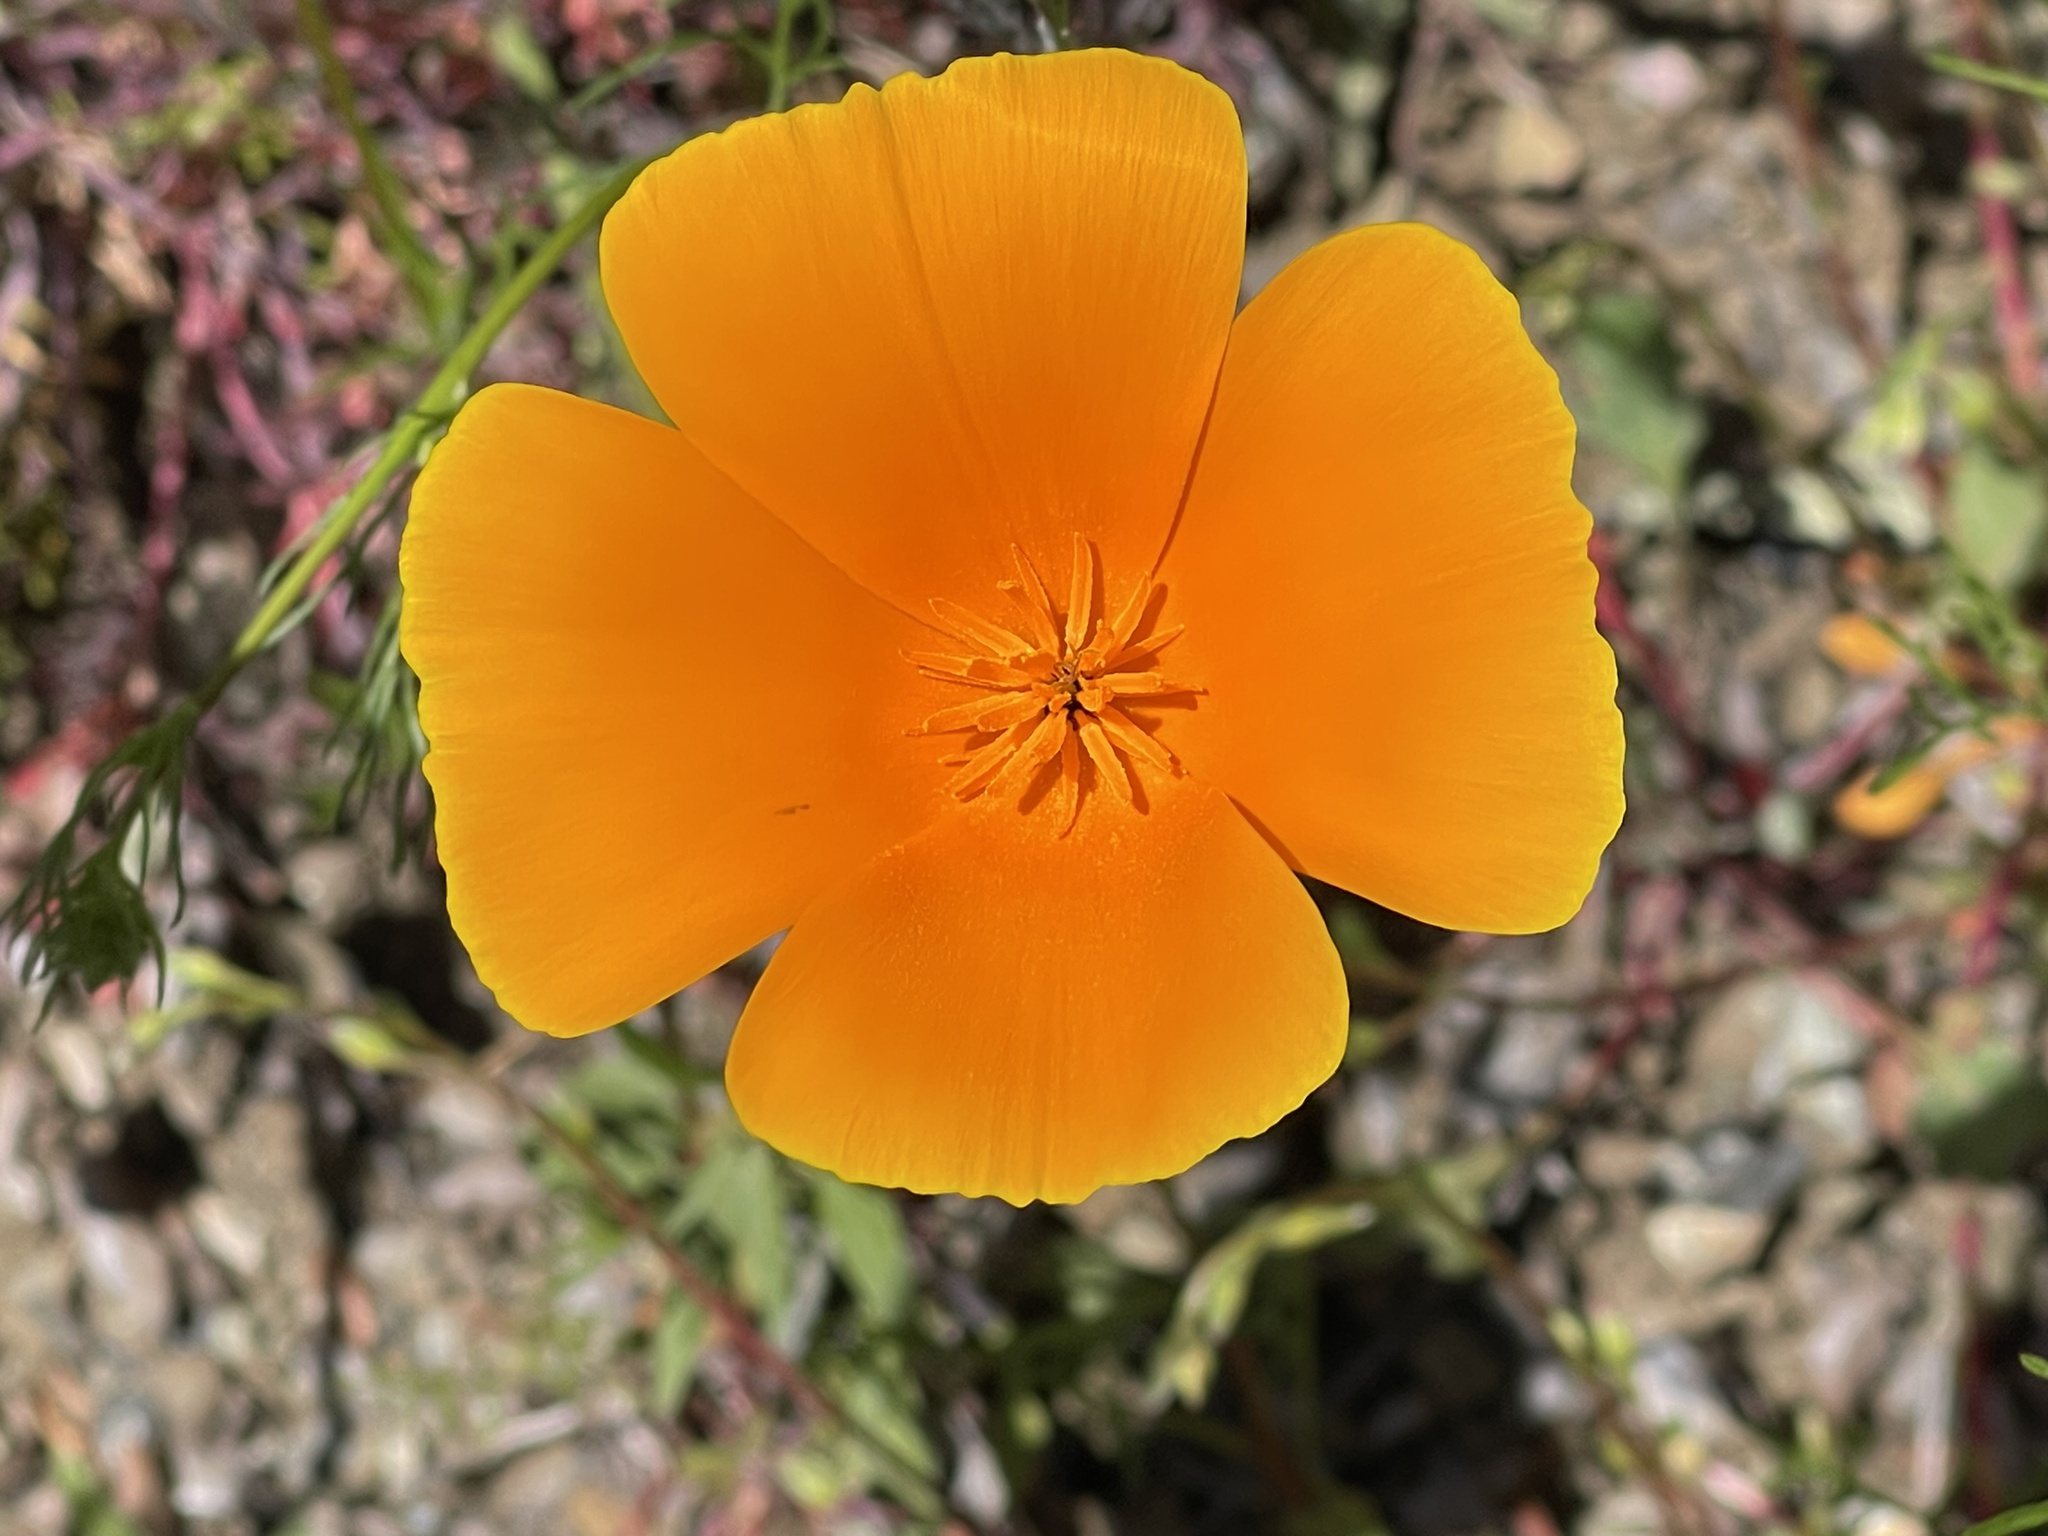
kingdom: Plantae
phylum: Tracheophyta
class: Magnoliopsida
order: Ranunculales
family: Papaveraceae
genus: Eschscholzia
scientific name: Eschscholzia californica
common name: California poppy
